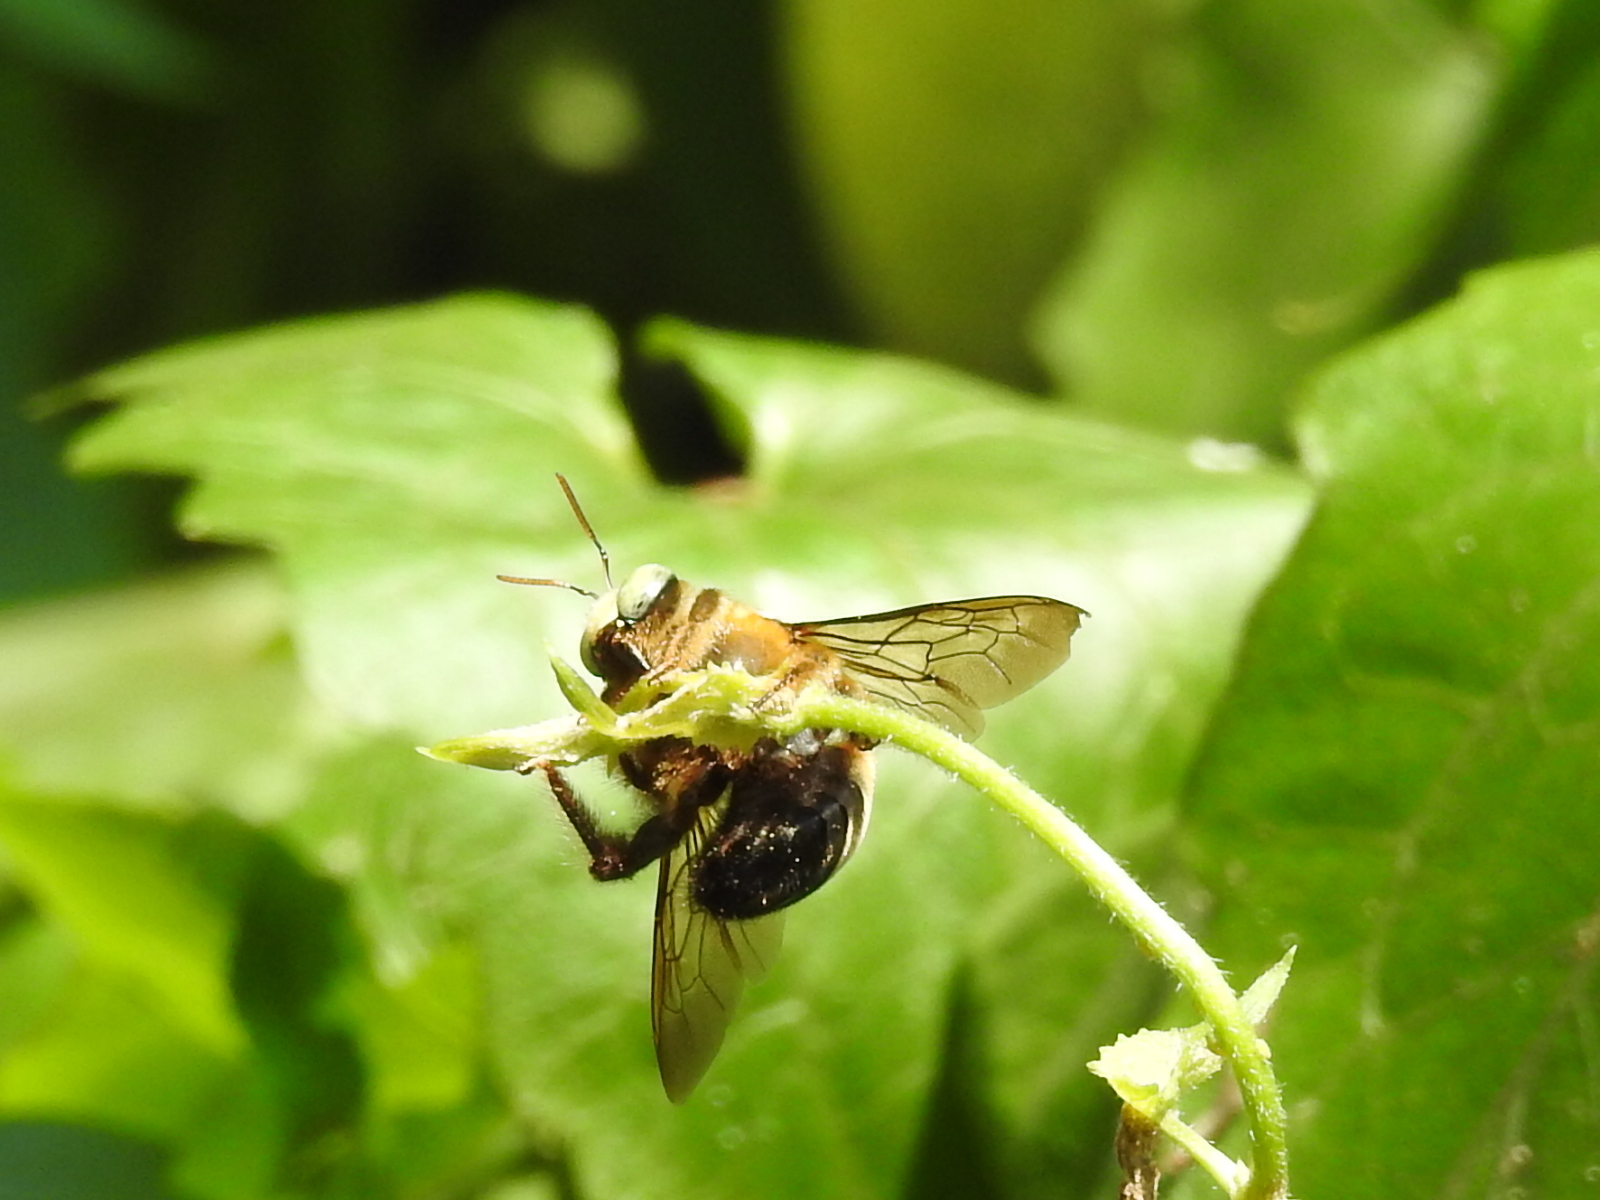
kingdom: Animalia
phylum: Arthropoda
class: Insecta
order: Hymenoptera
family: Apidae
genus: Xylocopa
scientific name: Xylocopa dejeanii
